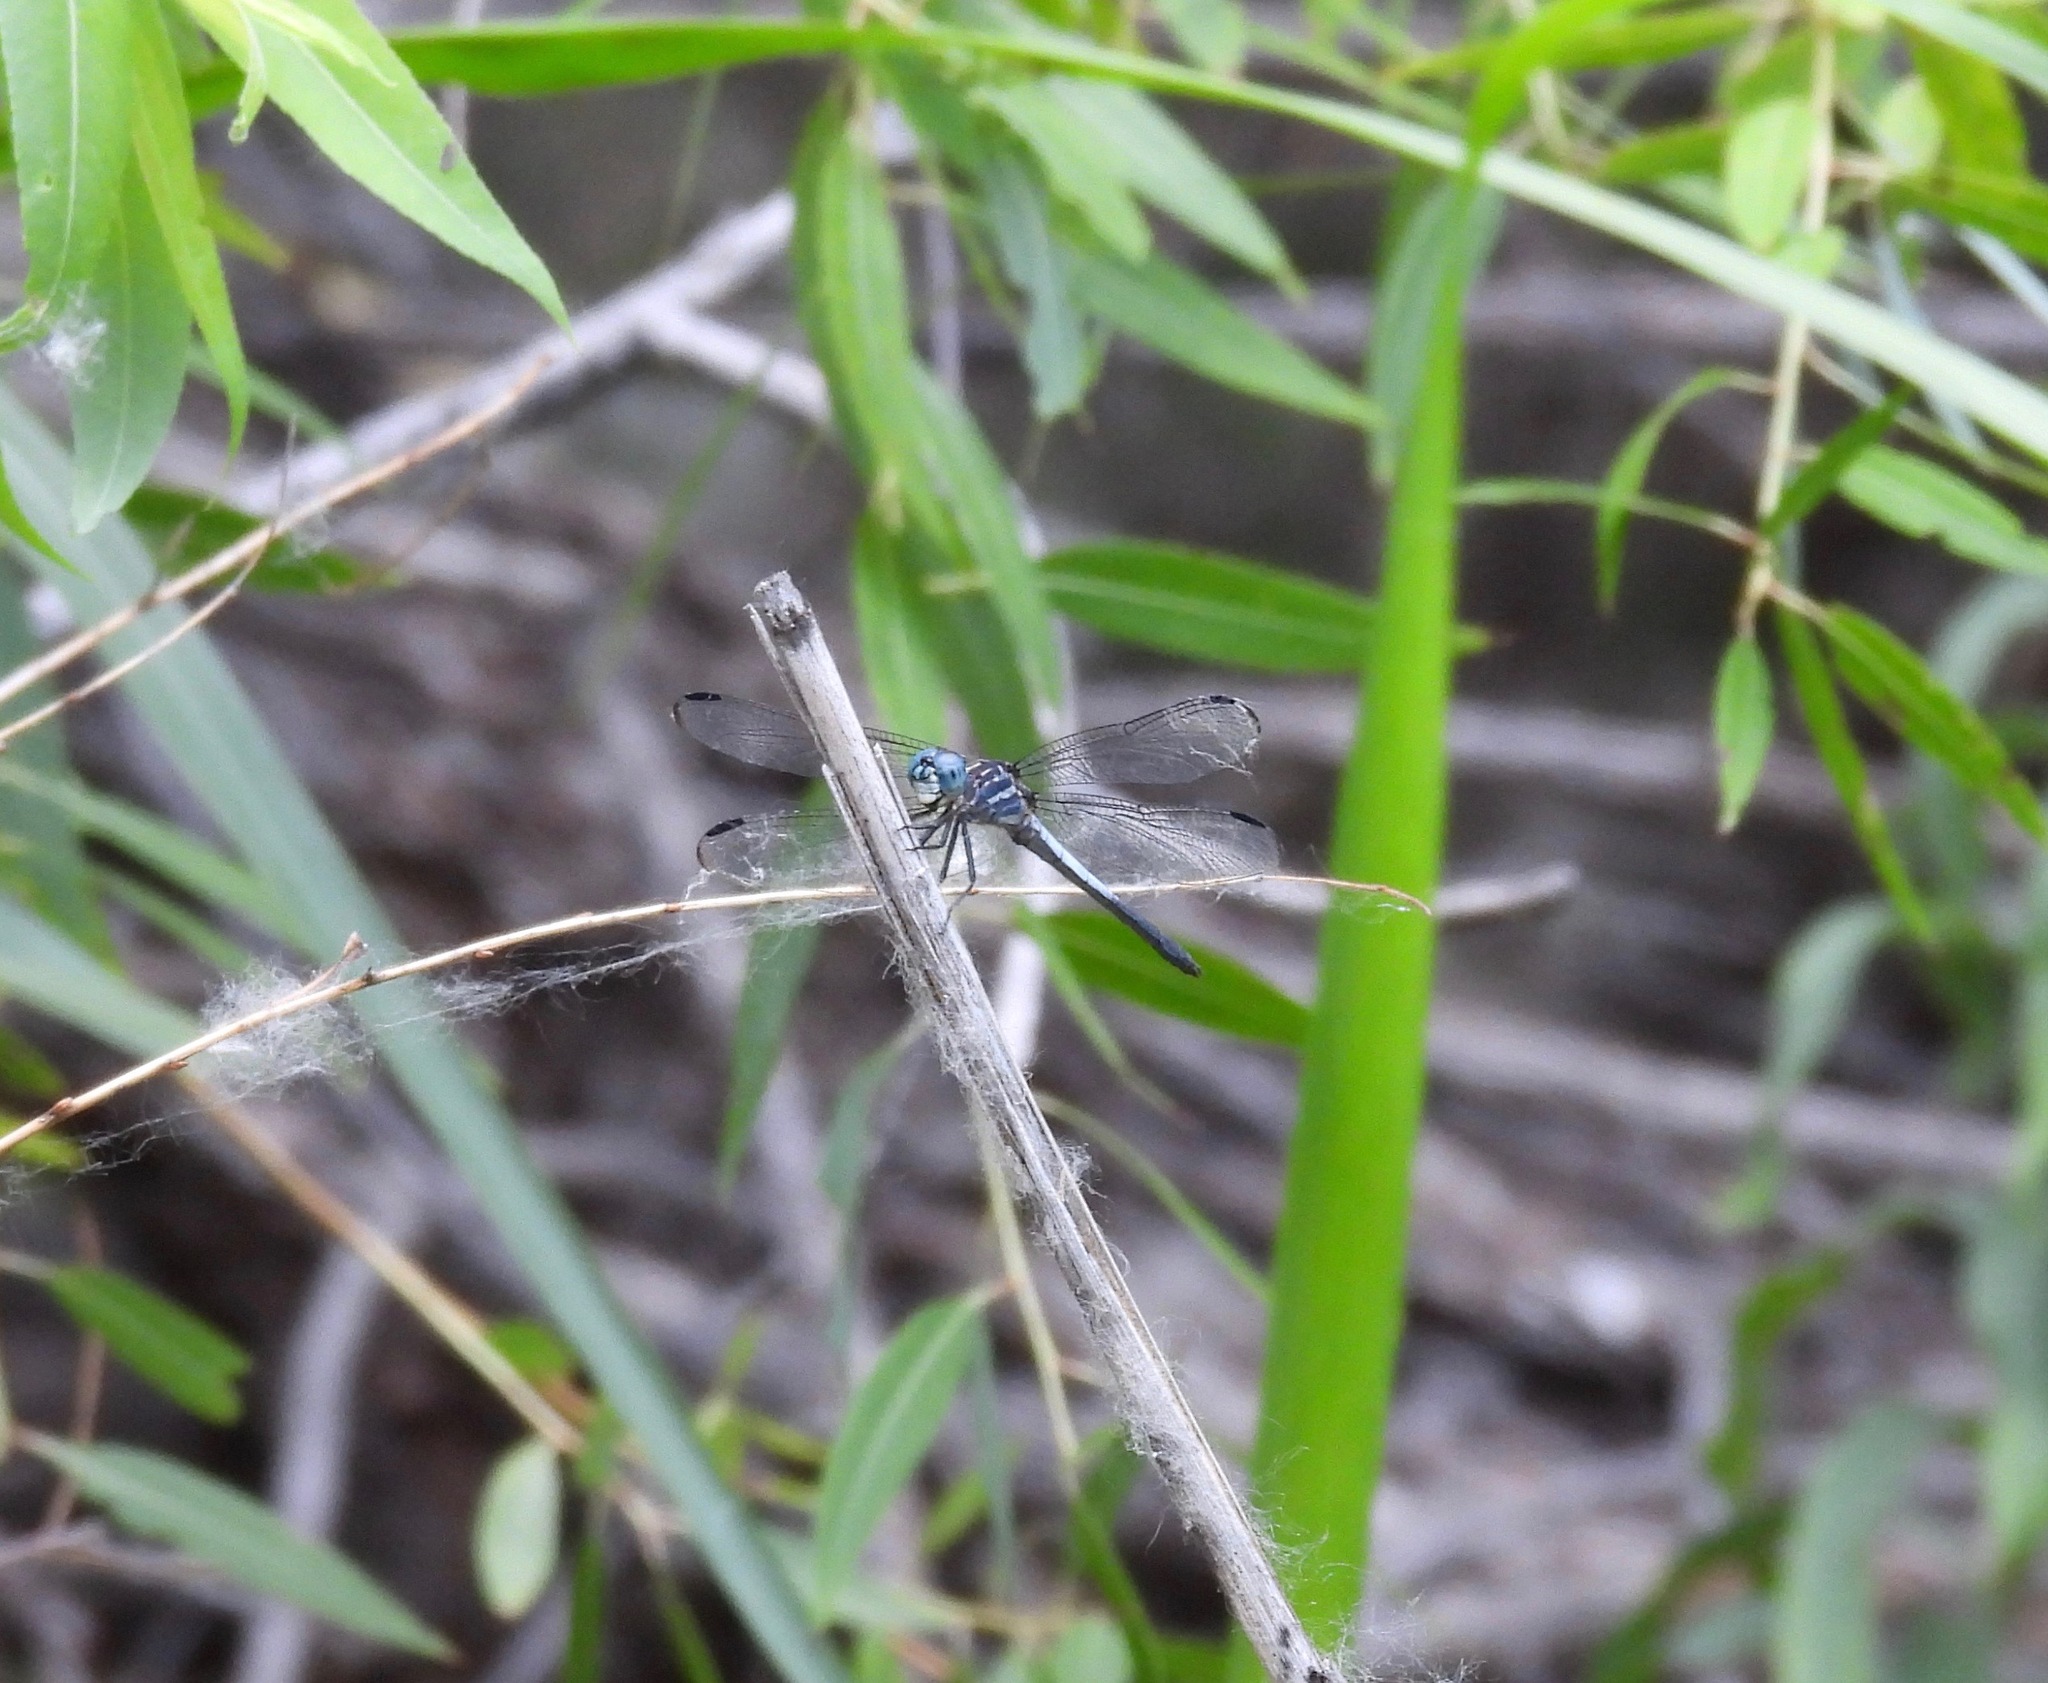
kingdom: Animalia
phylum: Arthropoda
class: Insecta
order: Odonata
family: Libellulidae
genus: Cannaphila
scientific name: Cannaphila insularis
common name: Gray-waisted skimmer
